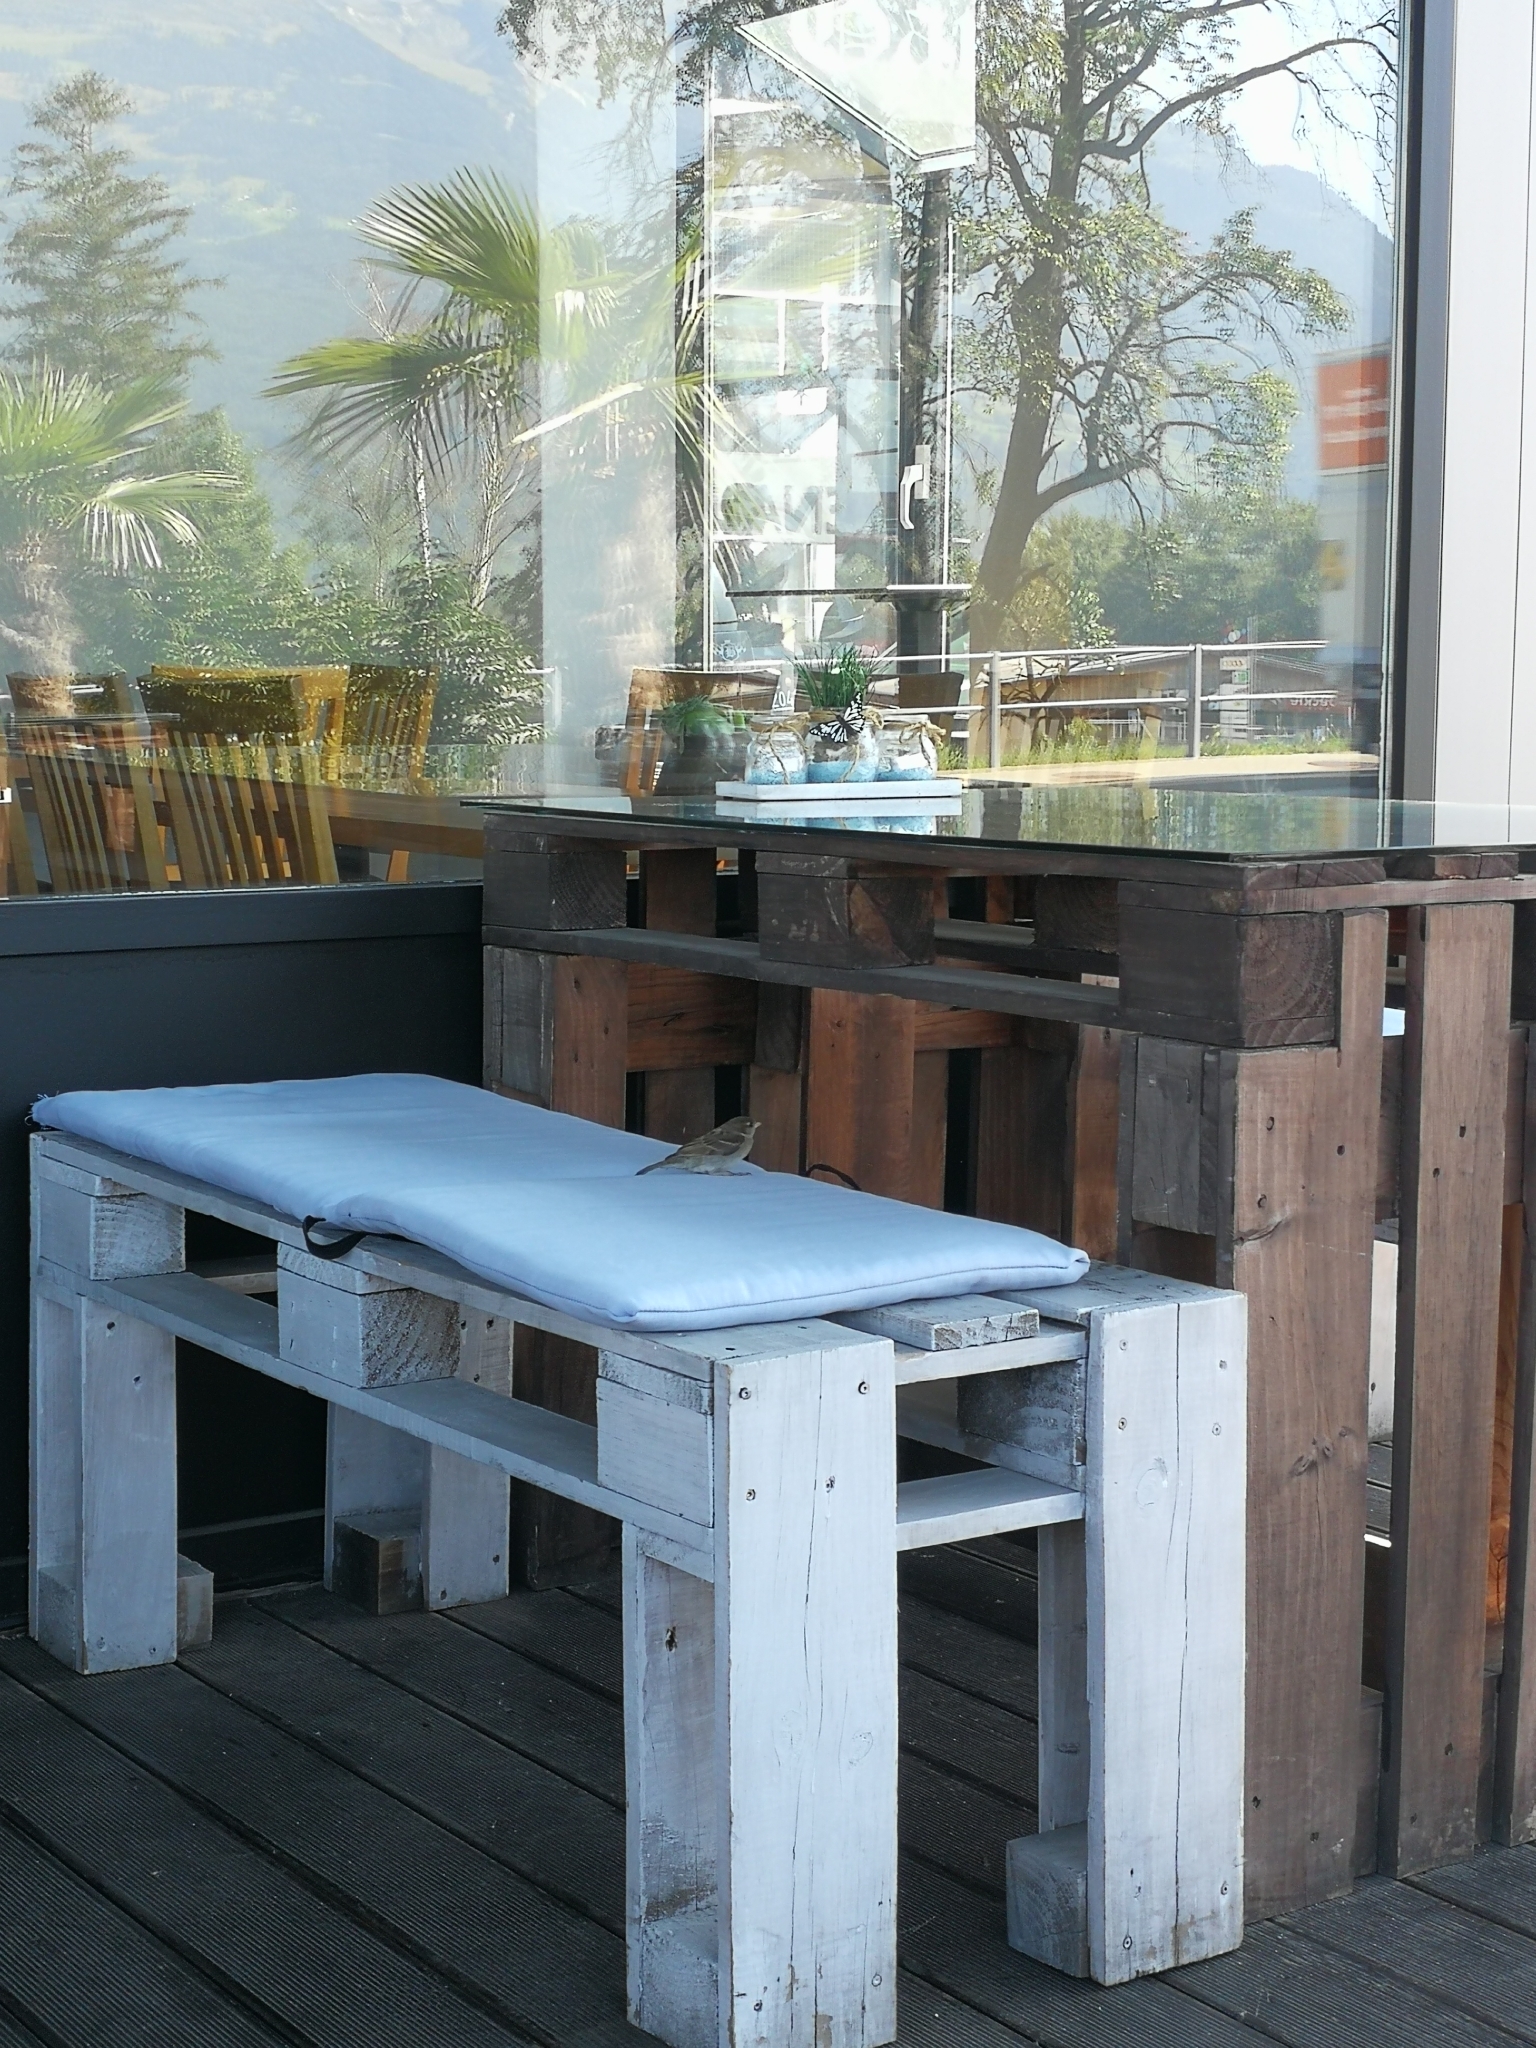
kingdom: Animalia
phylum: Chordata
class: Aves
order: Passeriformes
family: Passeridae
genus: Passer
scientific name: Passer montanus
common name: Eurasian tree sparrow
